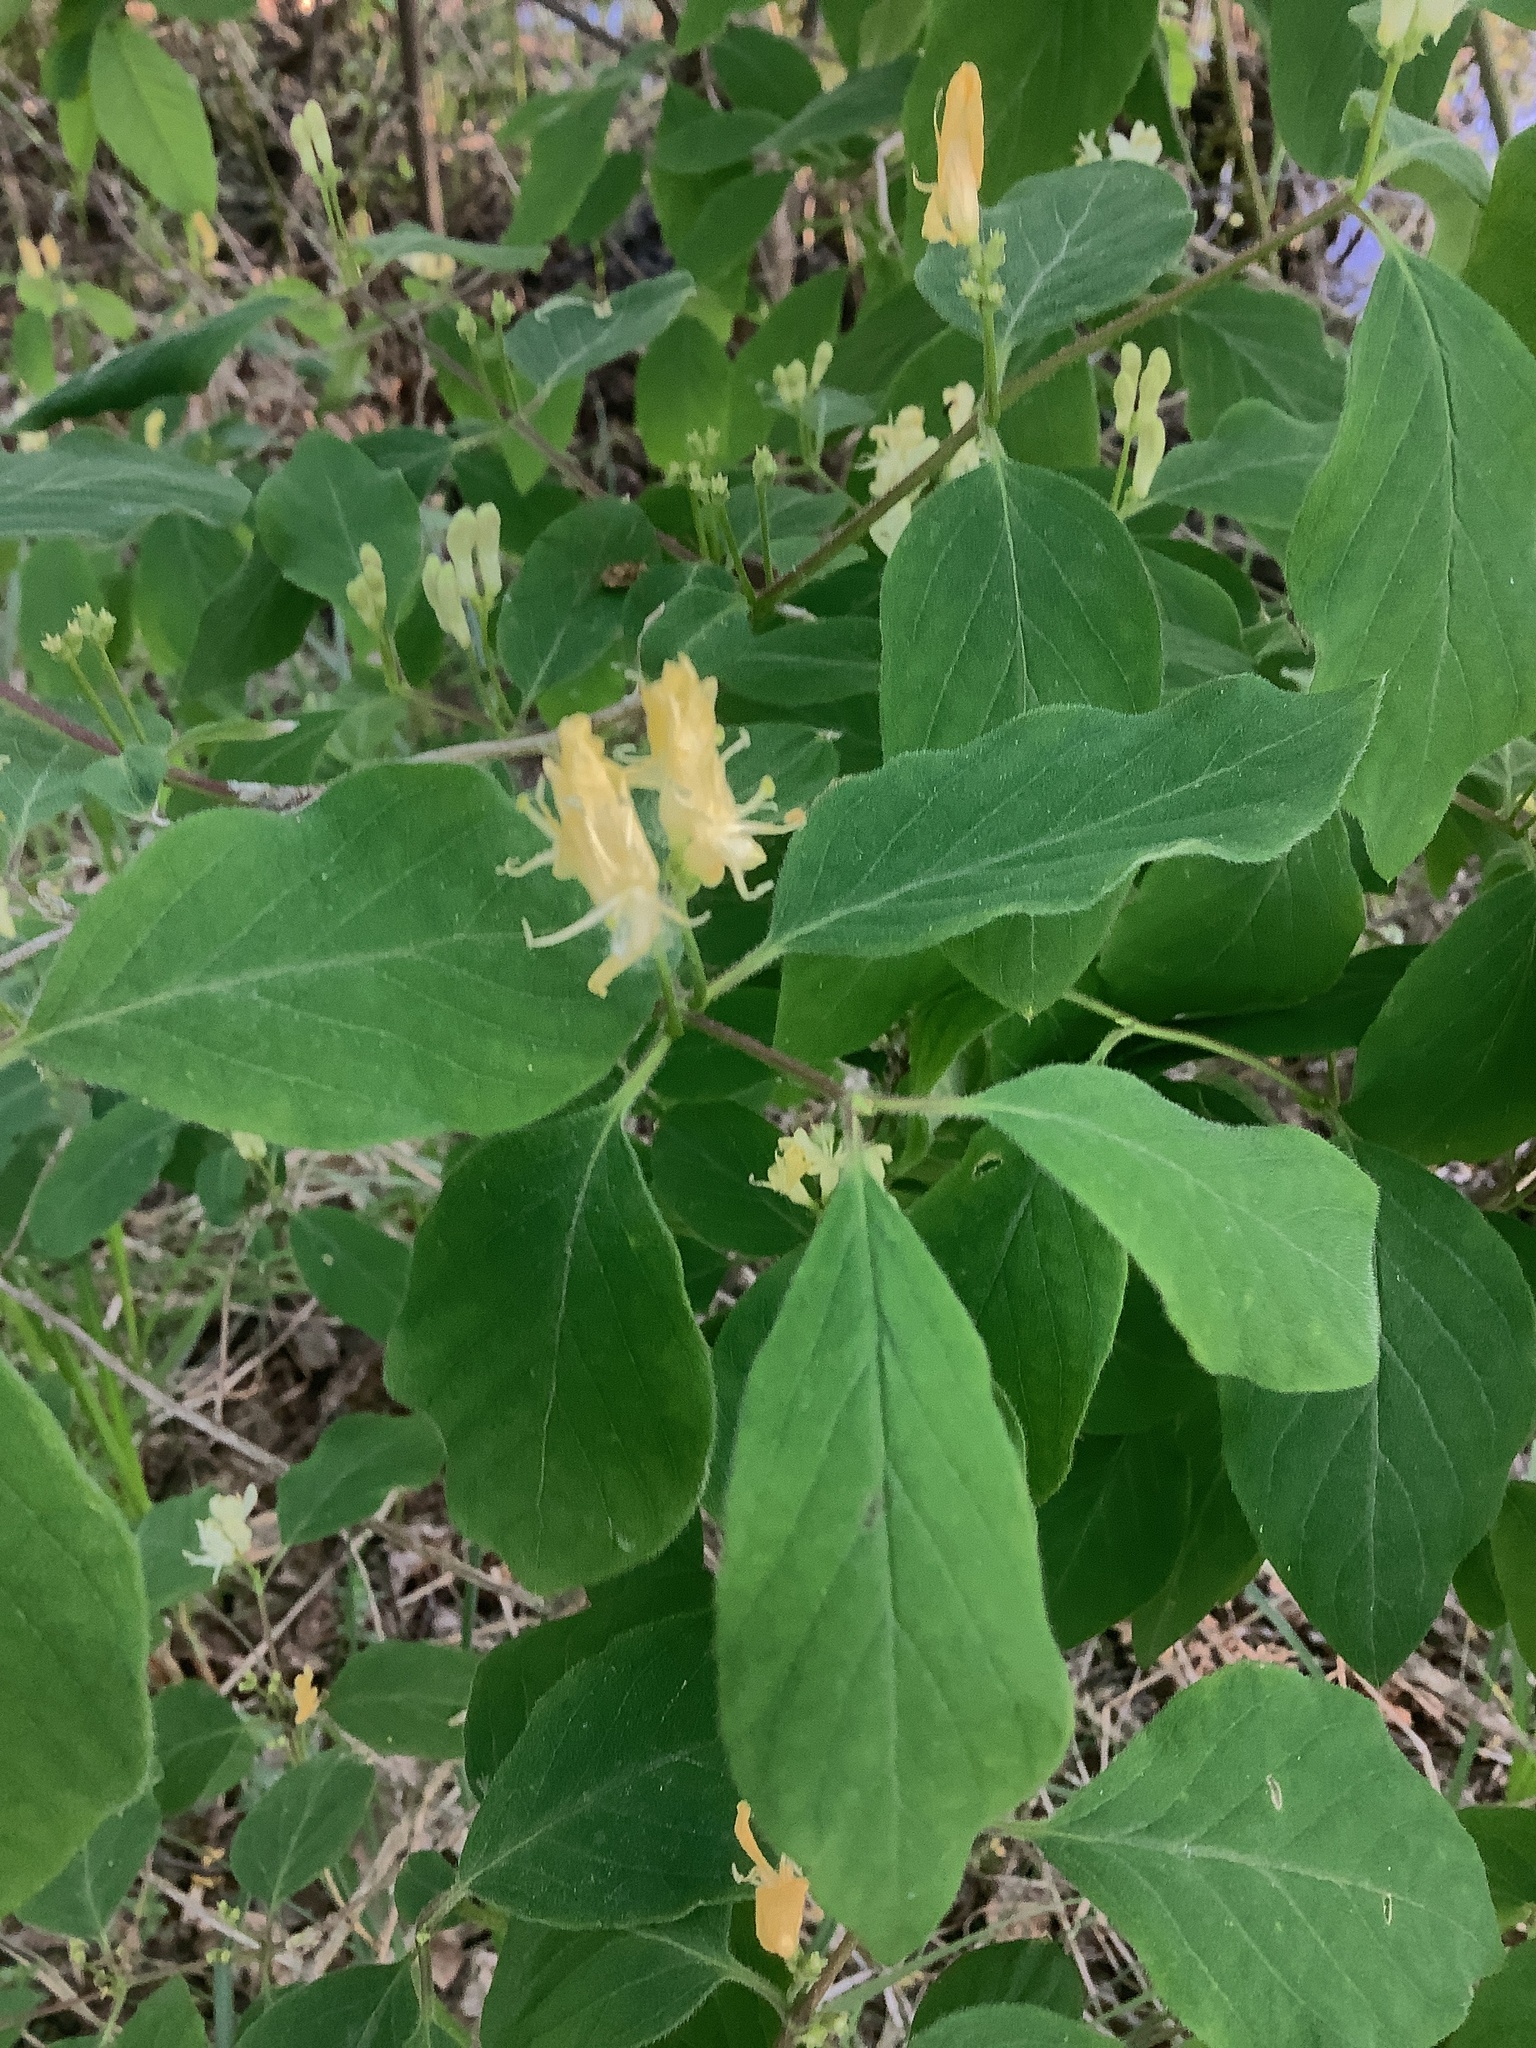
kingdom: Plantae
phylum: Tracheophyta
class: Magnoliopsida
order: Dipsacales
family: Caprifoliaceae
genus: Lonicera
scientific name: Lonicera xylosteum
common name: Fly honeysuckle
